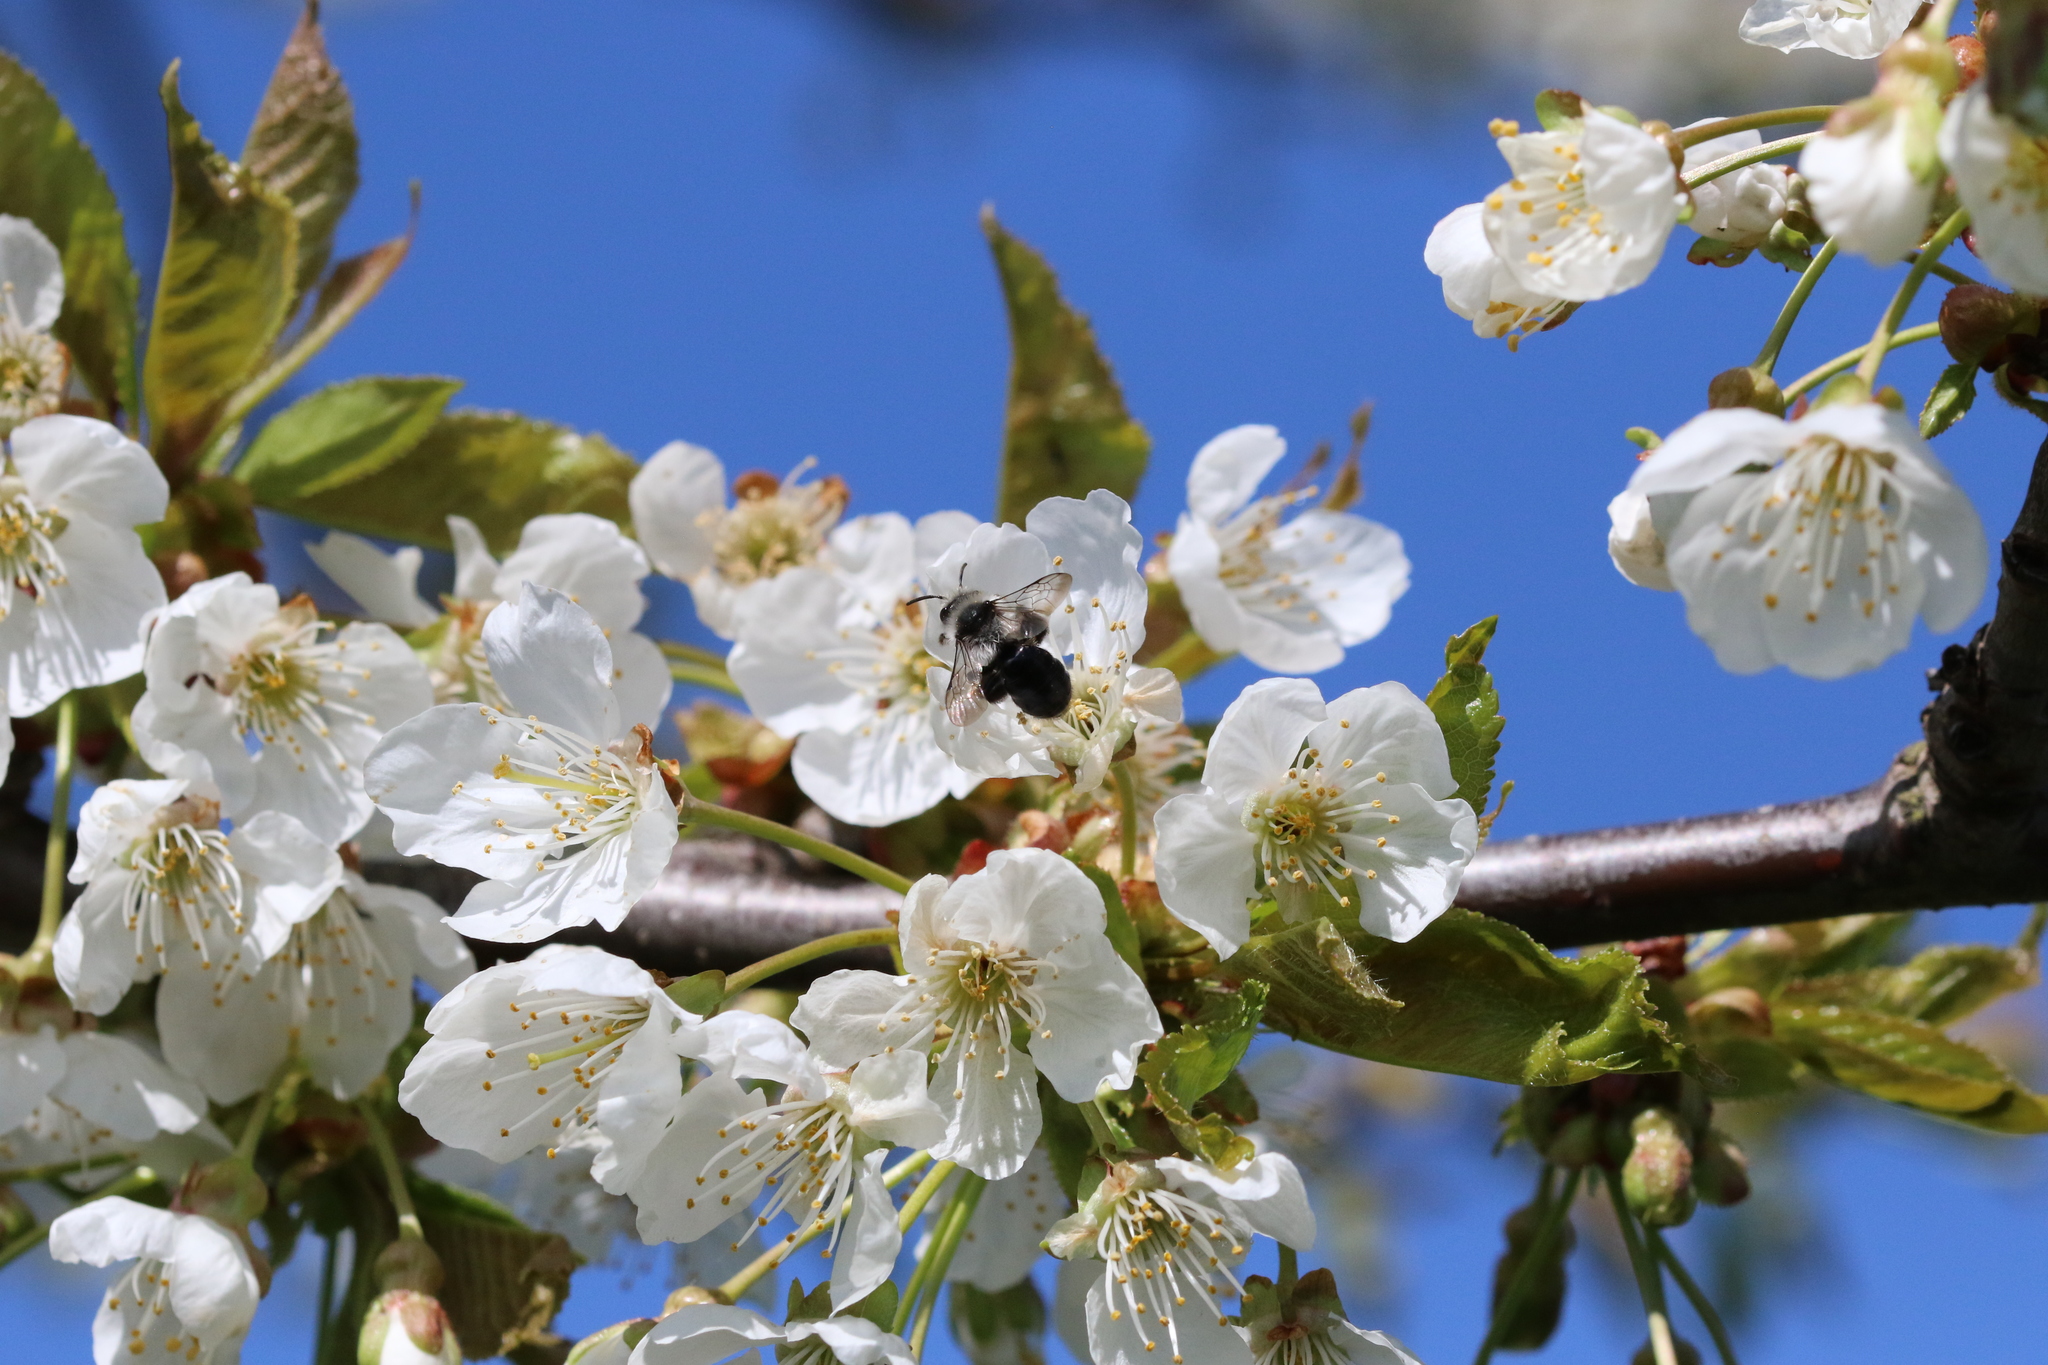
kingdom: Animalia
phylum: Arthropoda
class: Insecta
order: Hymenoptera
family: Andrenidae
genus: Andrena
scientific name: Andrena cineraria
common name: Ashy mining bee
